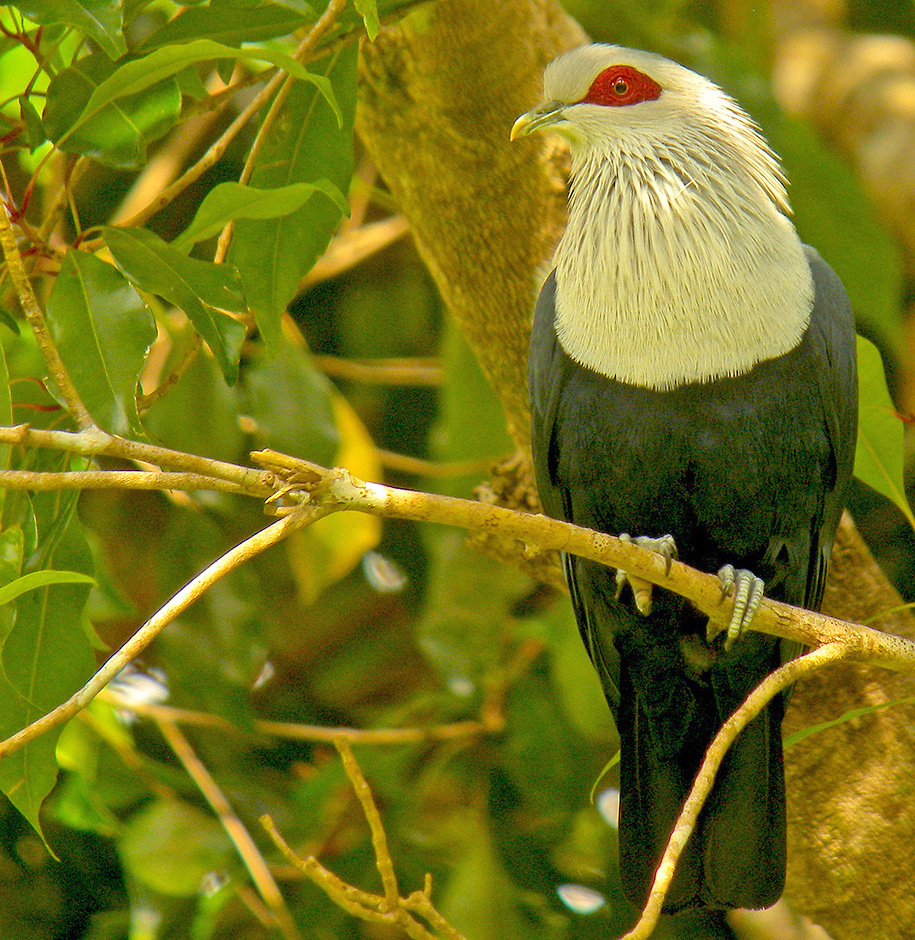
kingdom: Animalia
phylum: Chordata
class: Aves
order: Columbiformes
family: Columbidae
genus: Alectroenas
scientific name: Alectroenas sganzini
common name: Comoros blue pigeon
